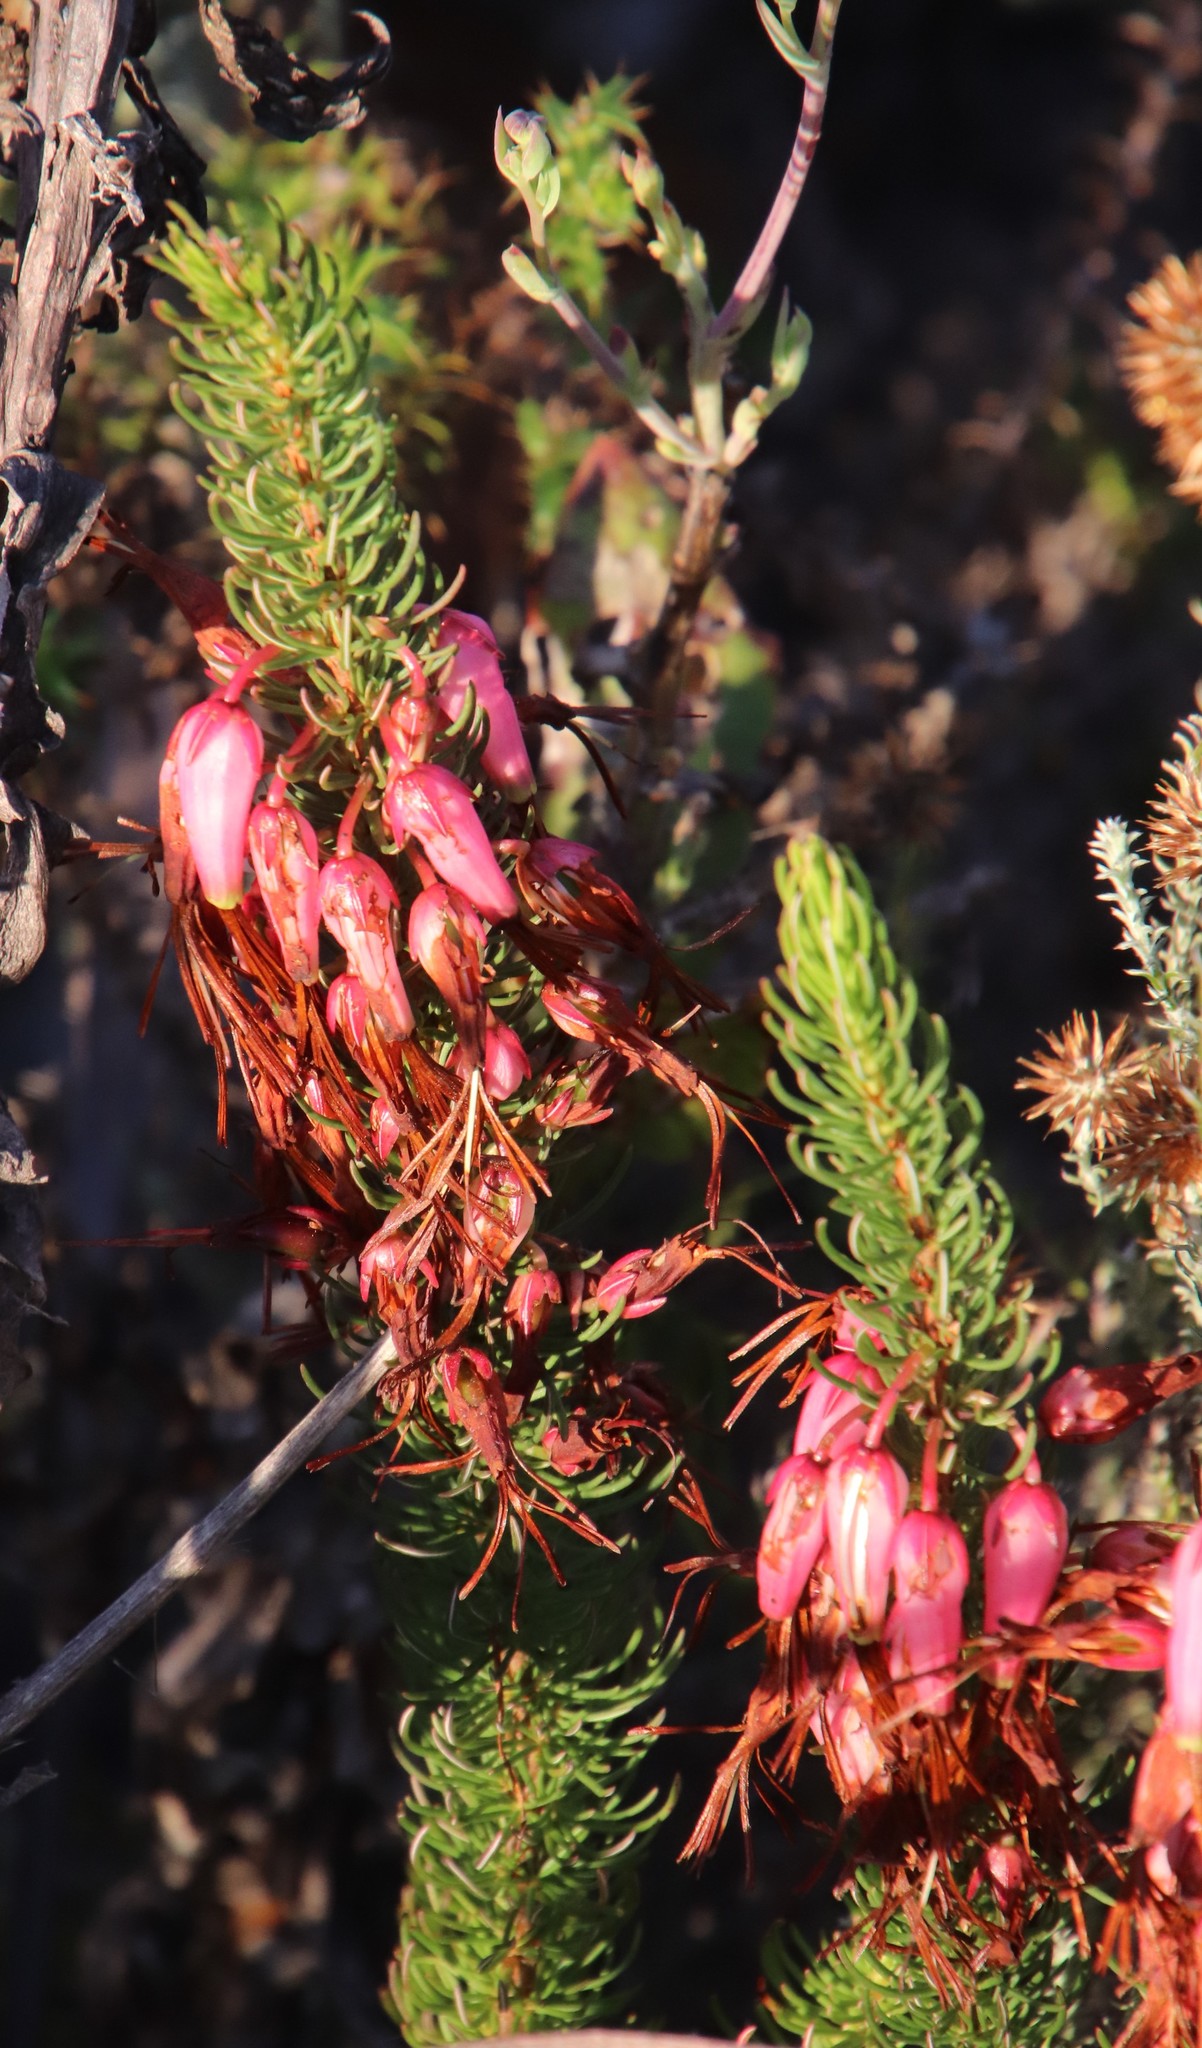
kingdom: Plantae
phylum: Tracheophyta
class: Magnoliopsida
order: Ericales
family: Ericaceae
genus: Erica
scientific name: Erica plukenetii
